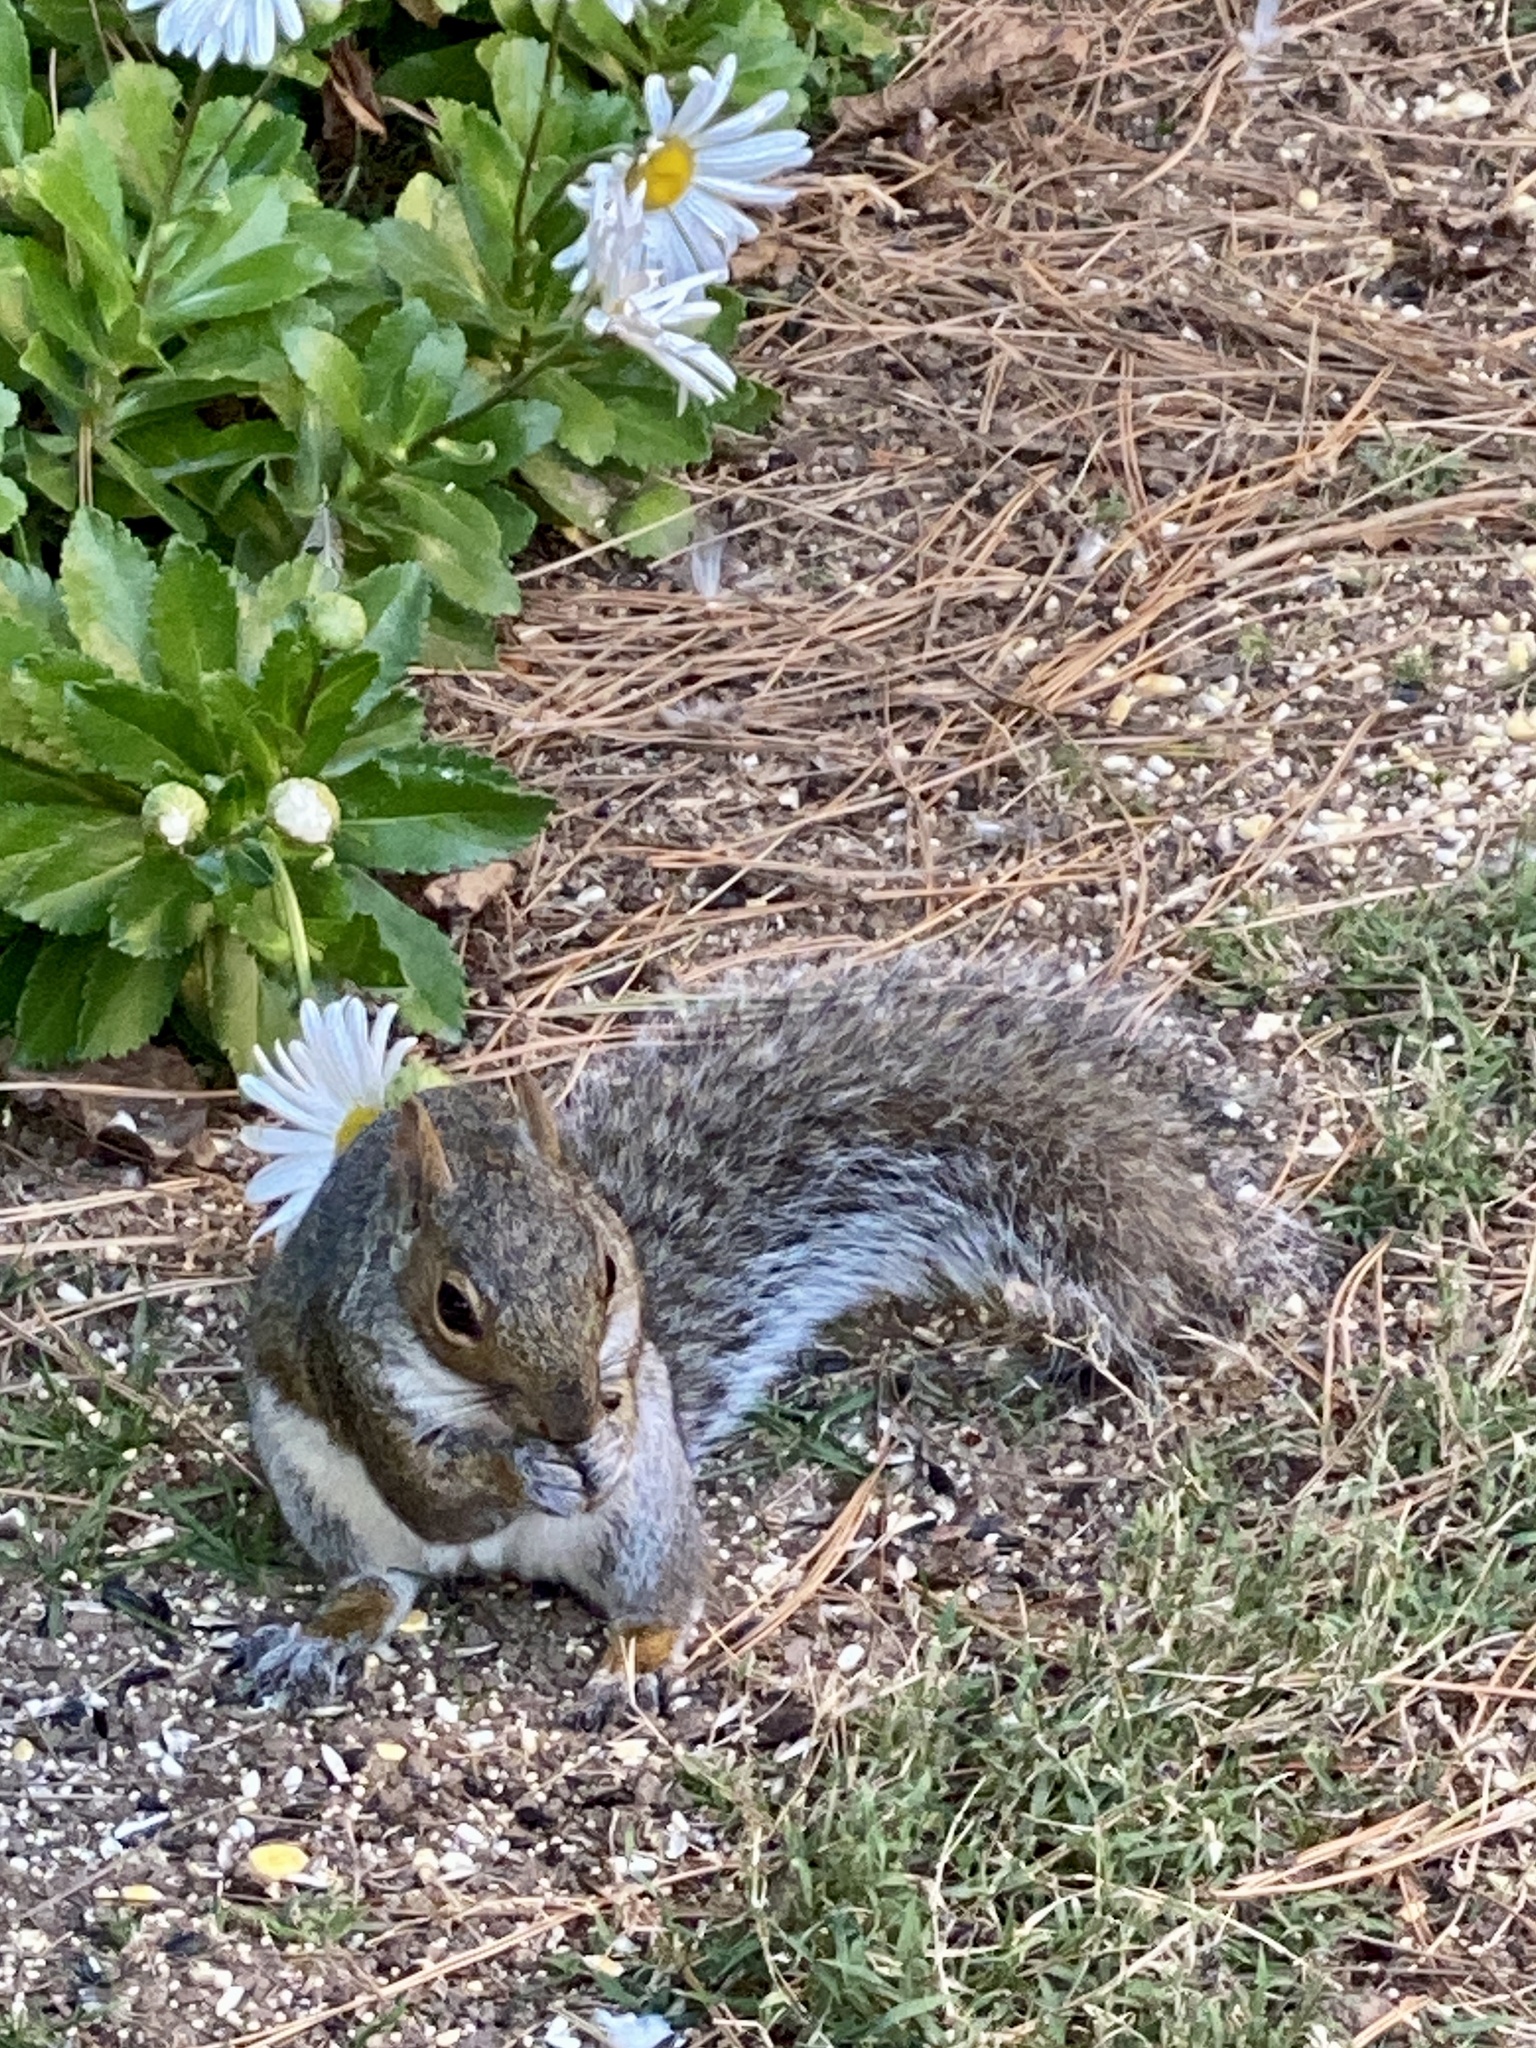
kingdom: Animalia
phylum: Chordata
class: Mammalia
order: Rodentia
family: Sciuridae
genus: Sciurus
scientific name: Sciurus carolinensis
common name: Eastern gray squirrel
